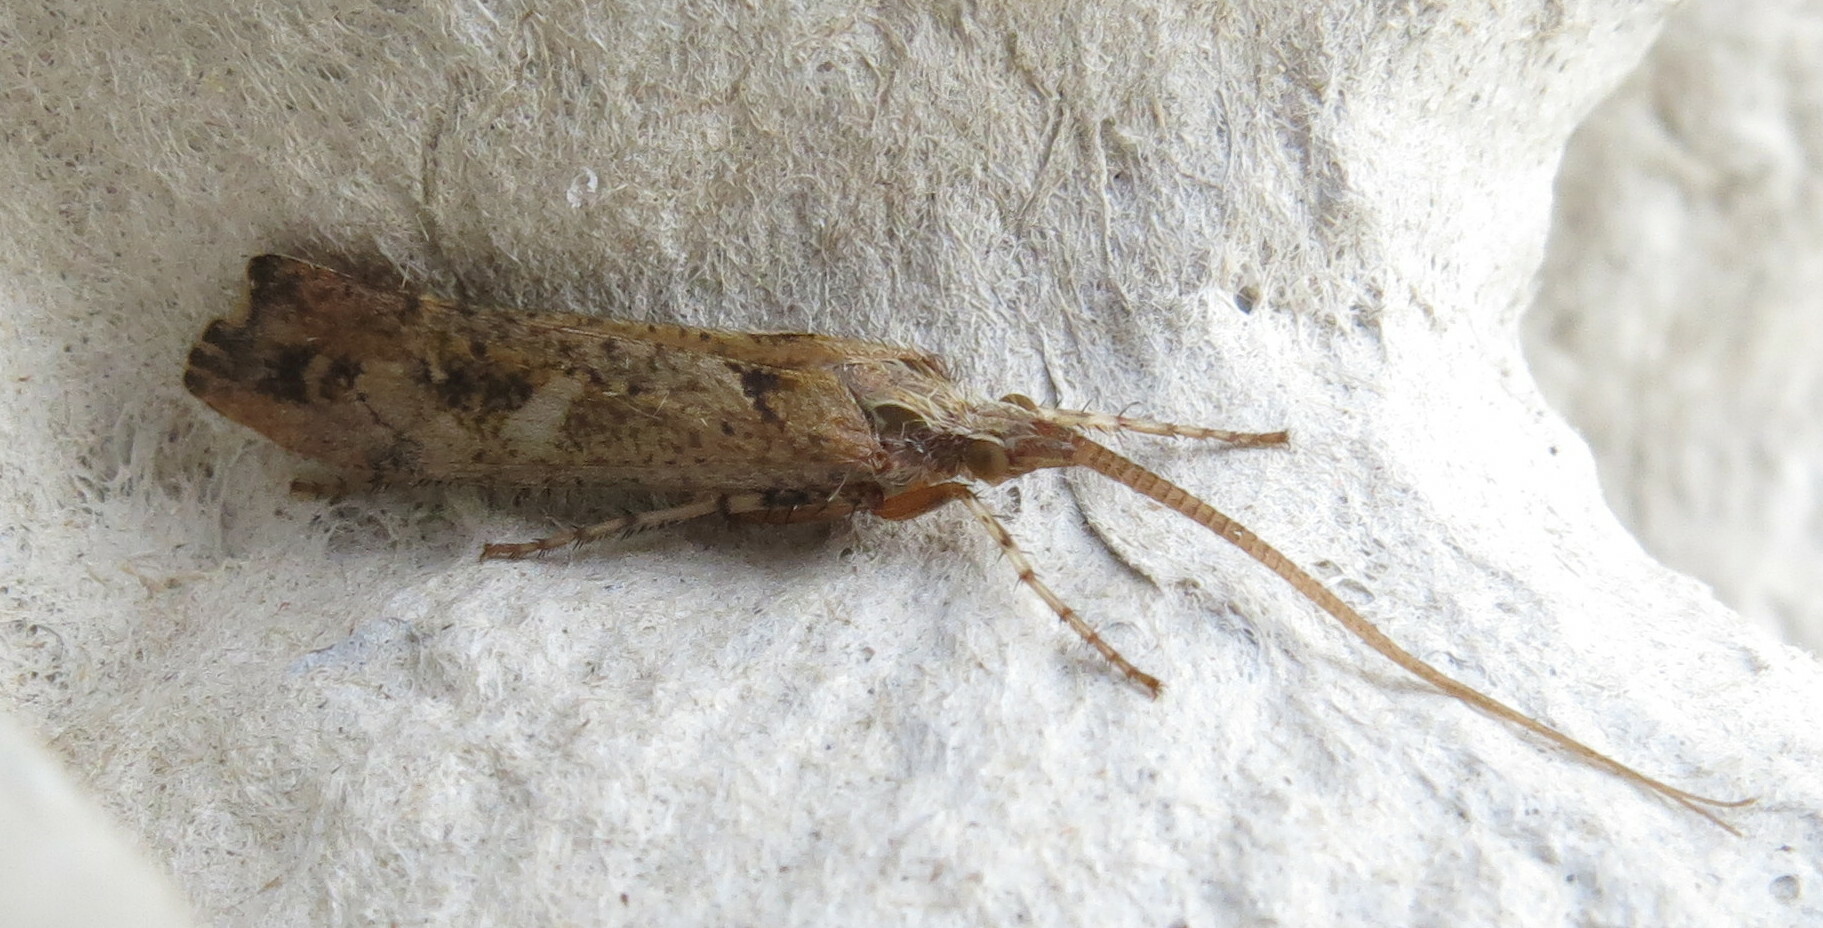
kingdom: Animalia
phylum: Arthropoda
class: Insecta
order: Trichoptera
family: Limnephilidae
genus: Glyphotaelius
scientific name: Glyphotaelius pellucidus
